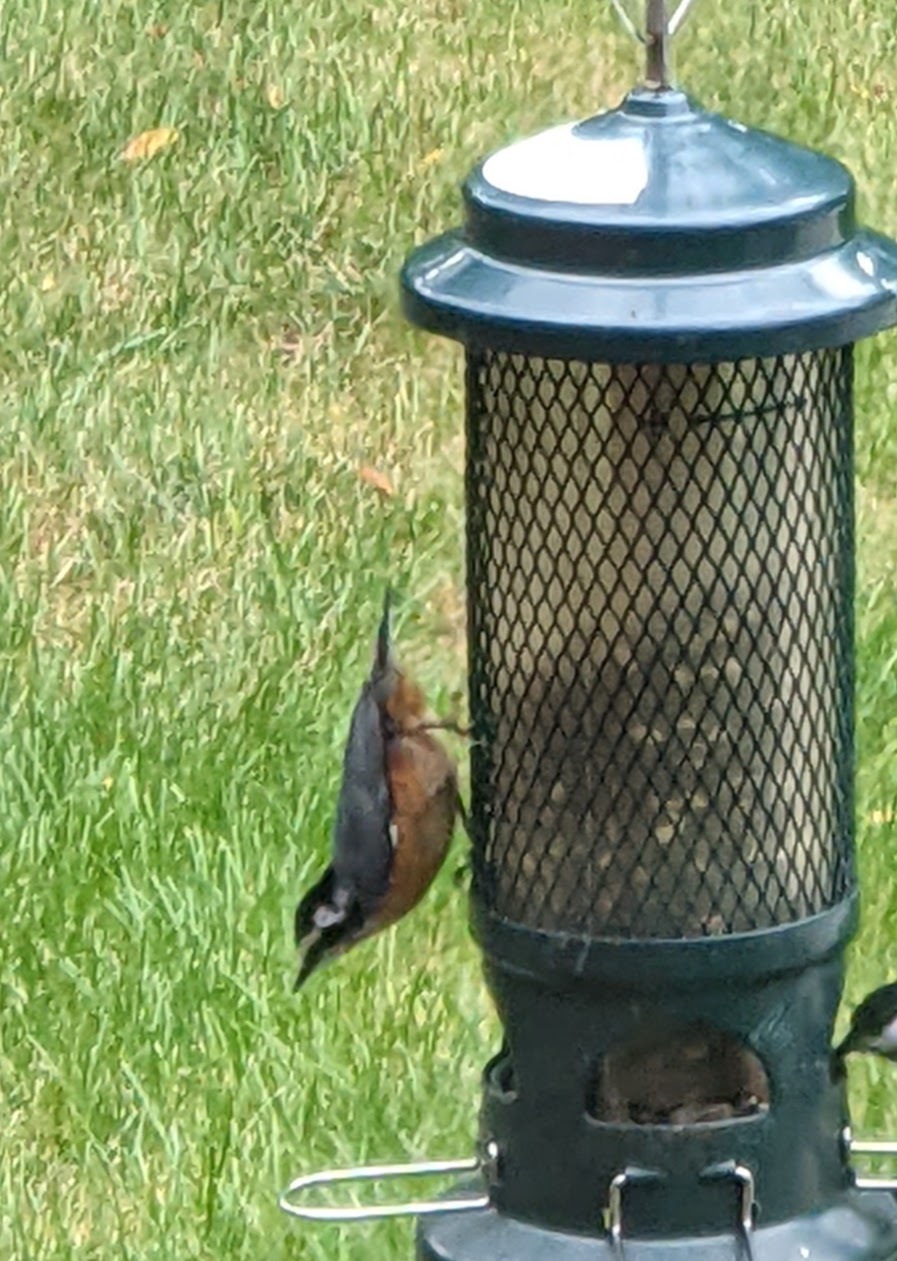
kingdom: Animalia
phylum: Chordata
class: Aves
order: Passeriformes
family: Sittidae
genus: Sitta
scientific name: Sitta canadensis
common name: Red-breasted nuthatch
